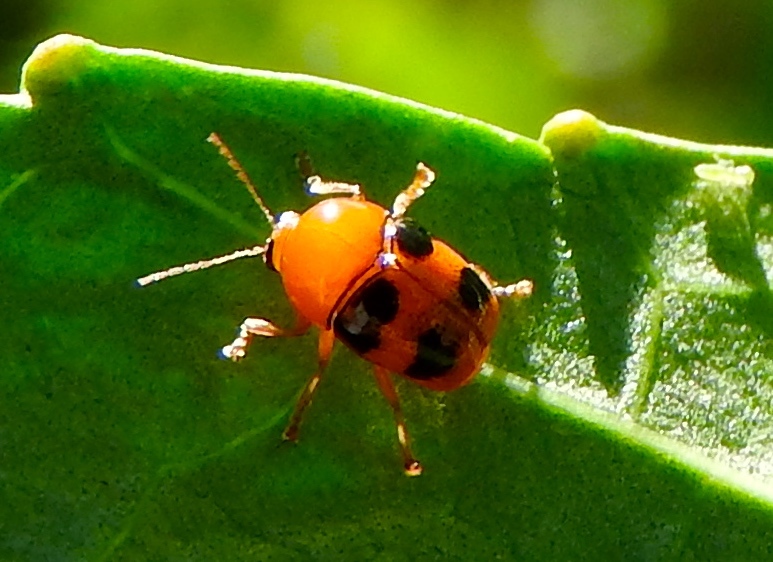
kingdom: Animalia
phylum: Arthropoda
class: Insecta
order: Coleoptera
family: Chrysomelidae
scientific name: Chrysomelidae
